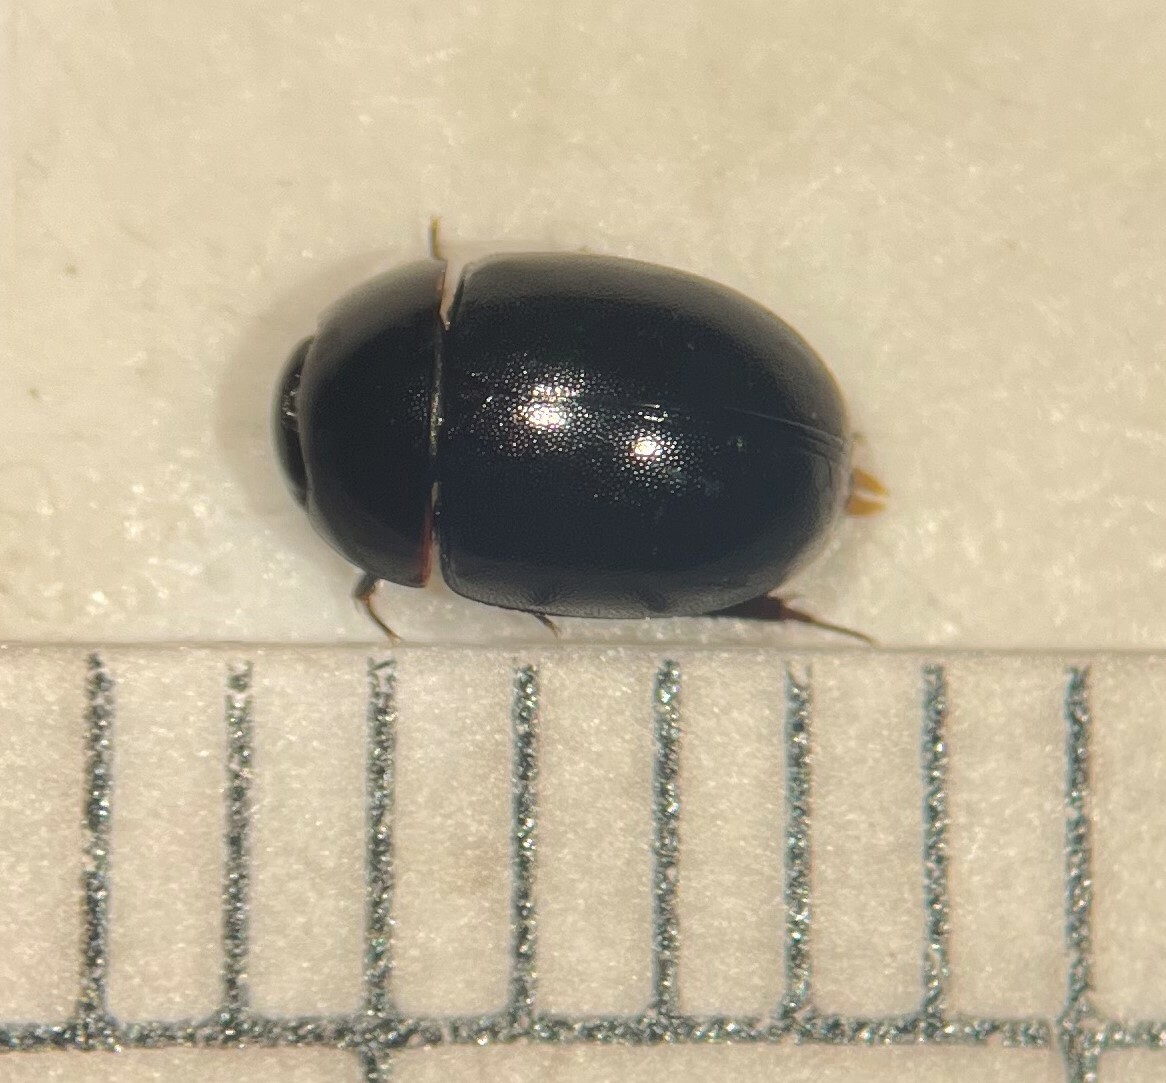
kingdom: Animalia
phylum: Arthropoda
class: Insecta
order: Coleoptera
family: Hydrophilidae
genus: Coelostoma
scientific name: Coelostoma orbiculare
